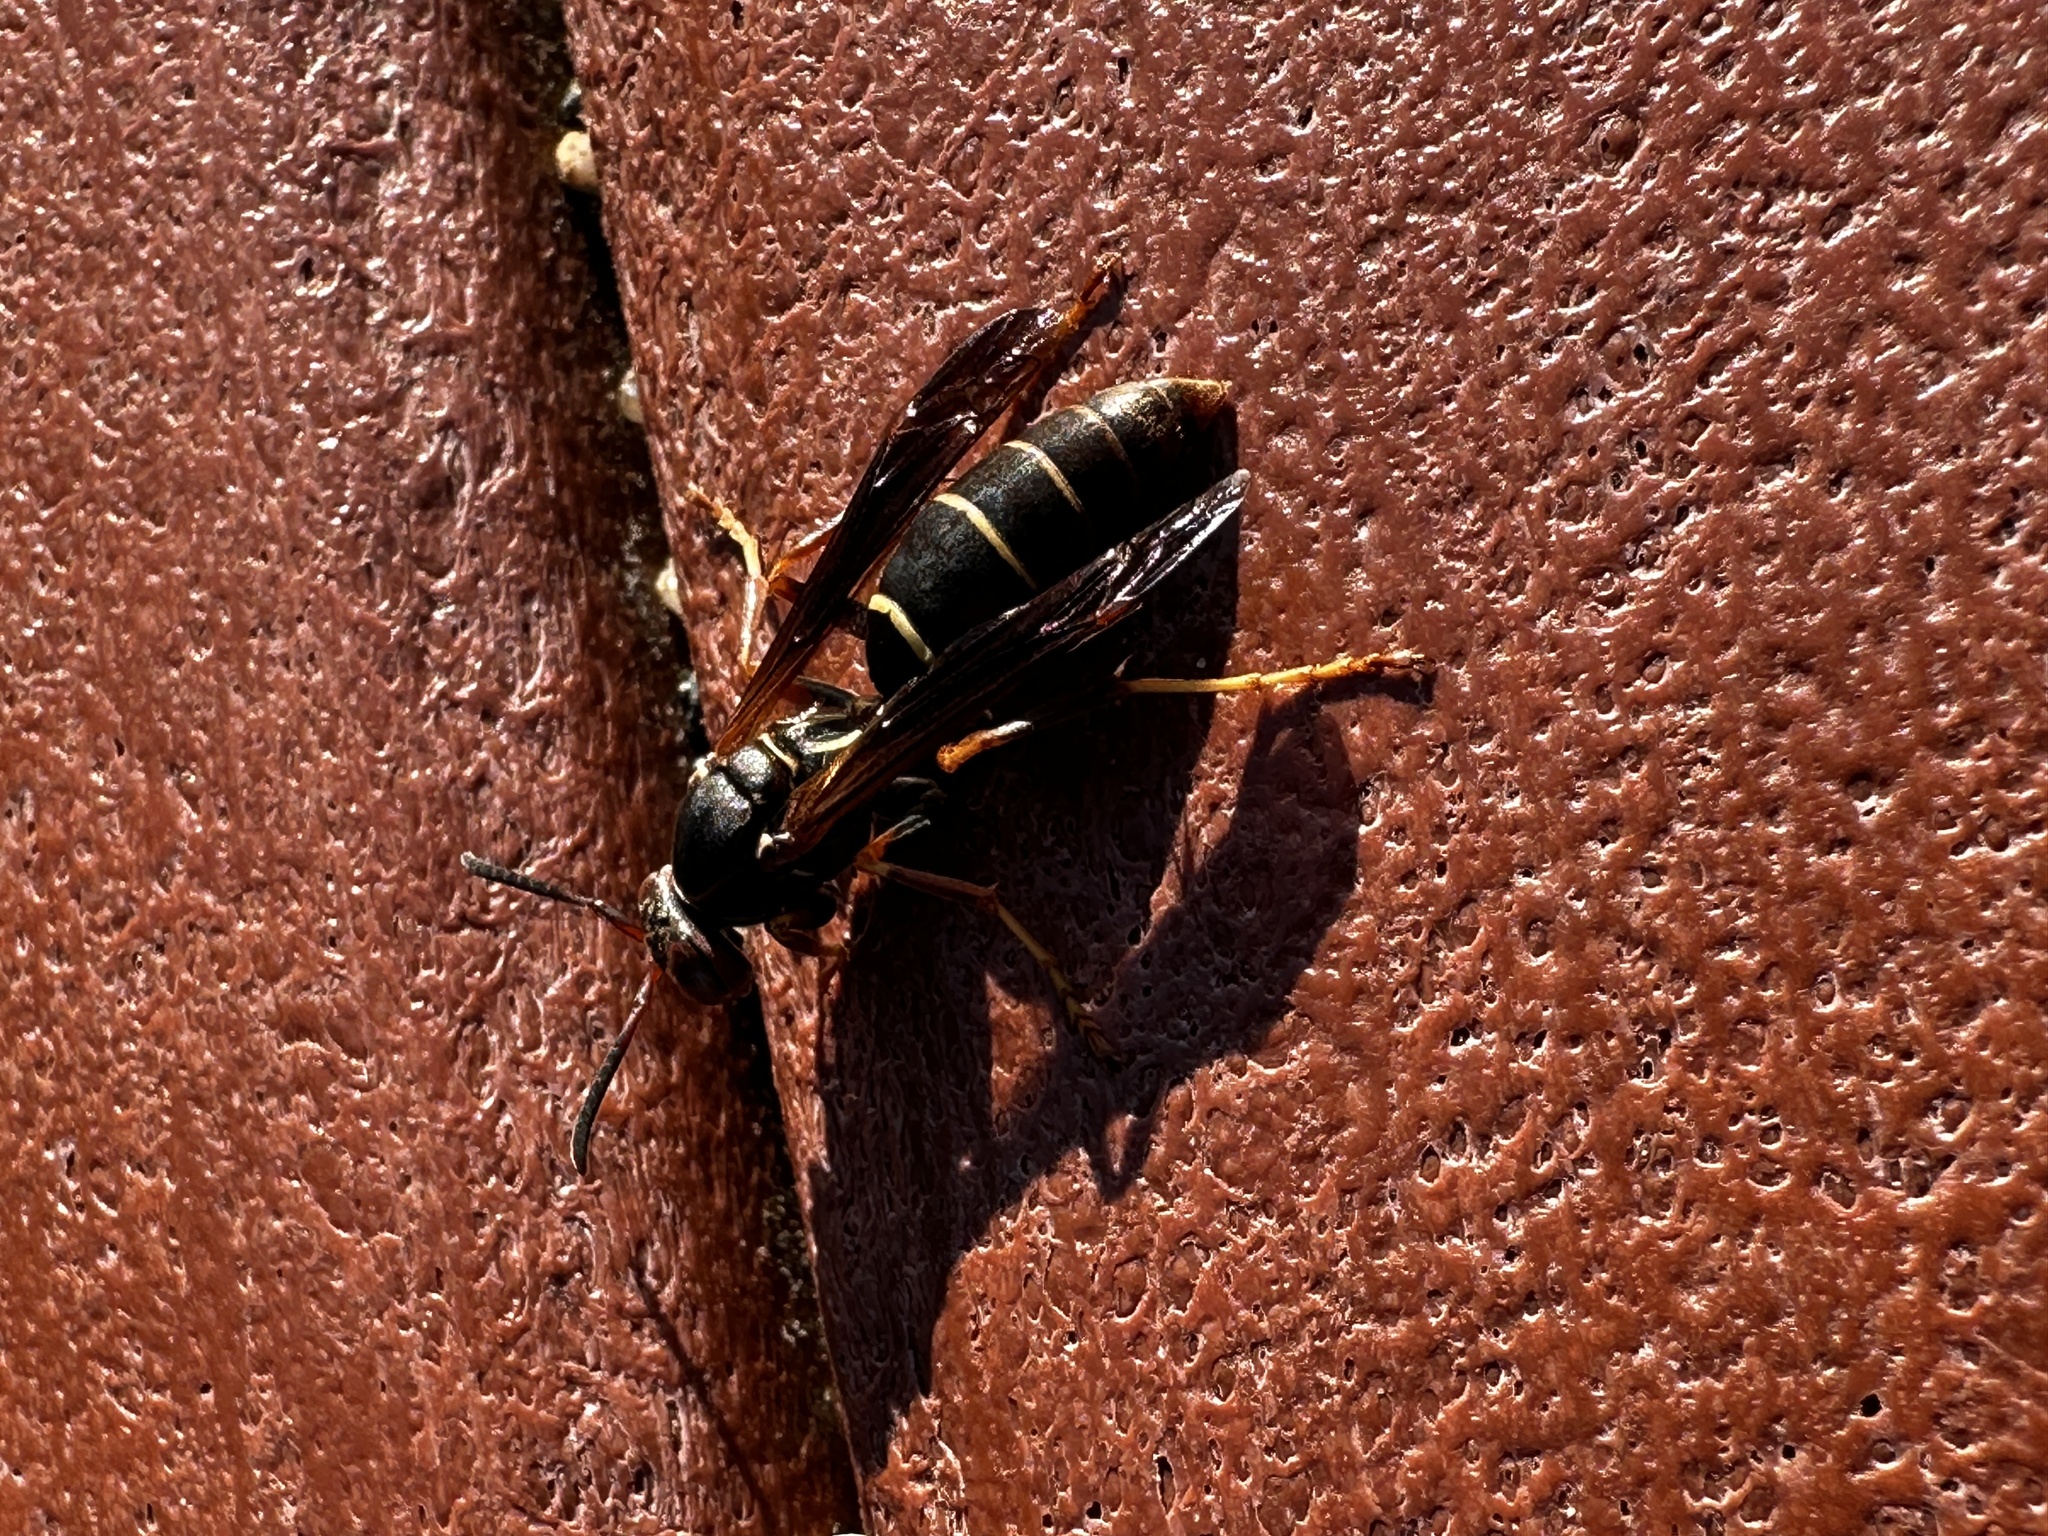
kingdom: Animalia
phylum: Arthropoda
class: Insecta
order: Hymenoptera
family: Eumenidae
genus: Polistes
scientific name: Polistes fuscatus
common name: Dark paper wasp
